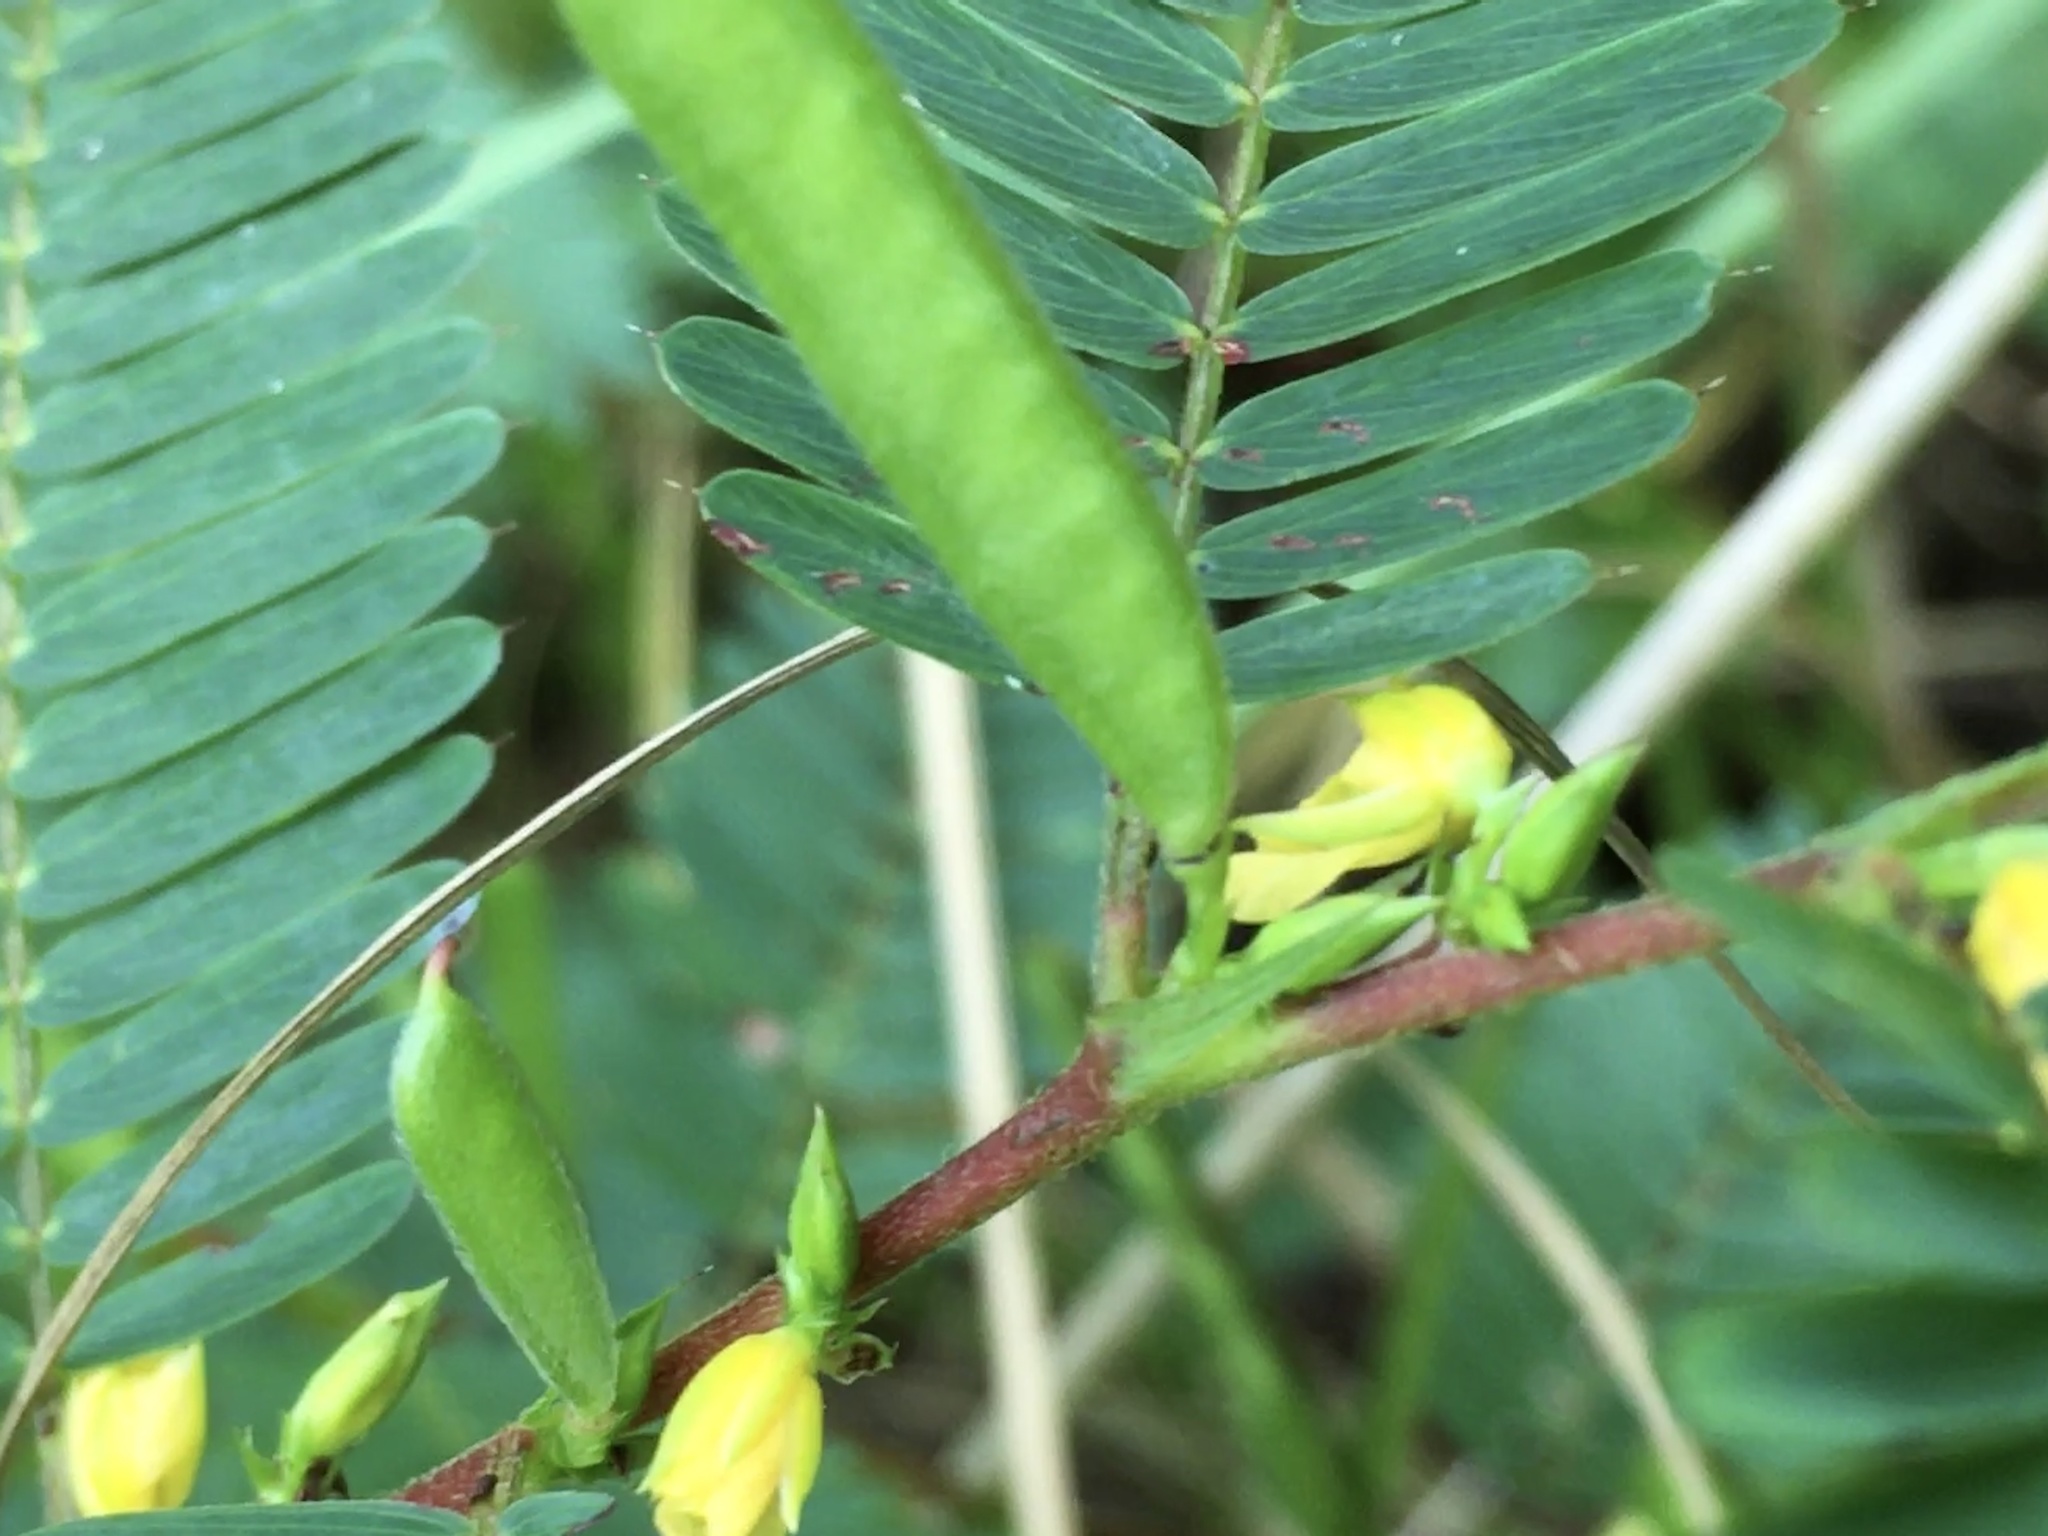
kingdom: Plantae
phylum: Tracheophyta
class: Magnoliopsida
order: Fabales
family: Fabaceae
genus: Chamaecrista
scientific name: Chamaecrista nictitans
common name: Sensitive cassia
